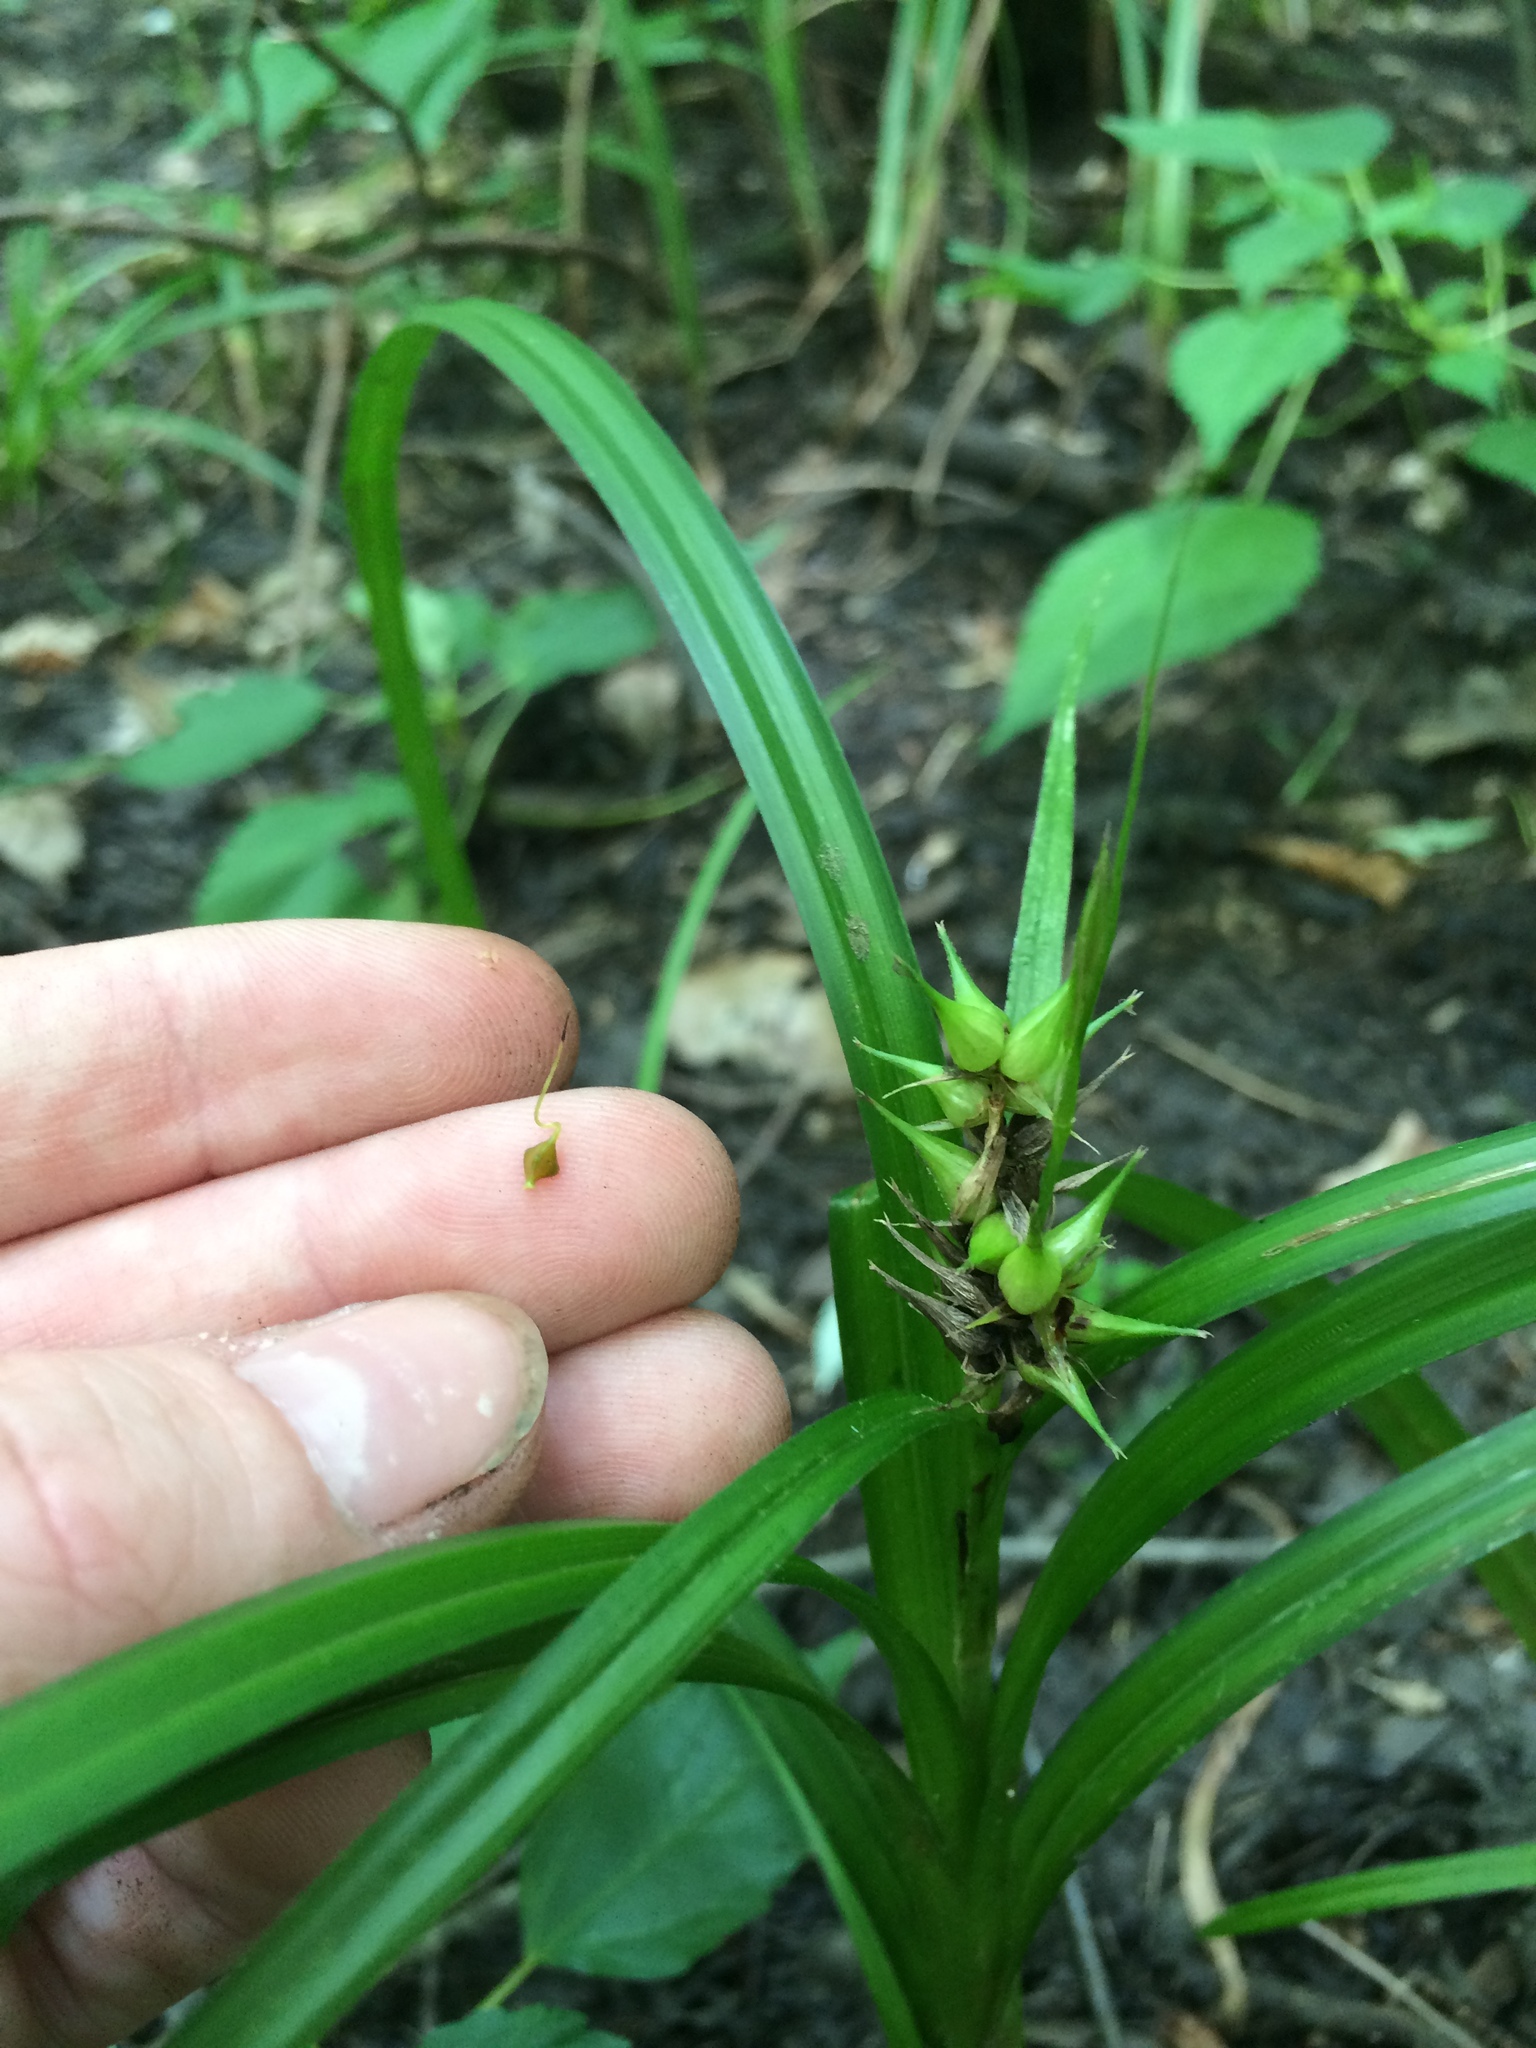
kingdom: Plantae
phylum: Tracheophyta
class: Liliopsida
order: Poales
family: Cyperaceae
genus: Carex
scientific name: Carex lupuliformis
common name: False hop sedge
